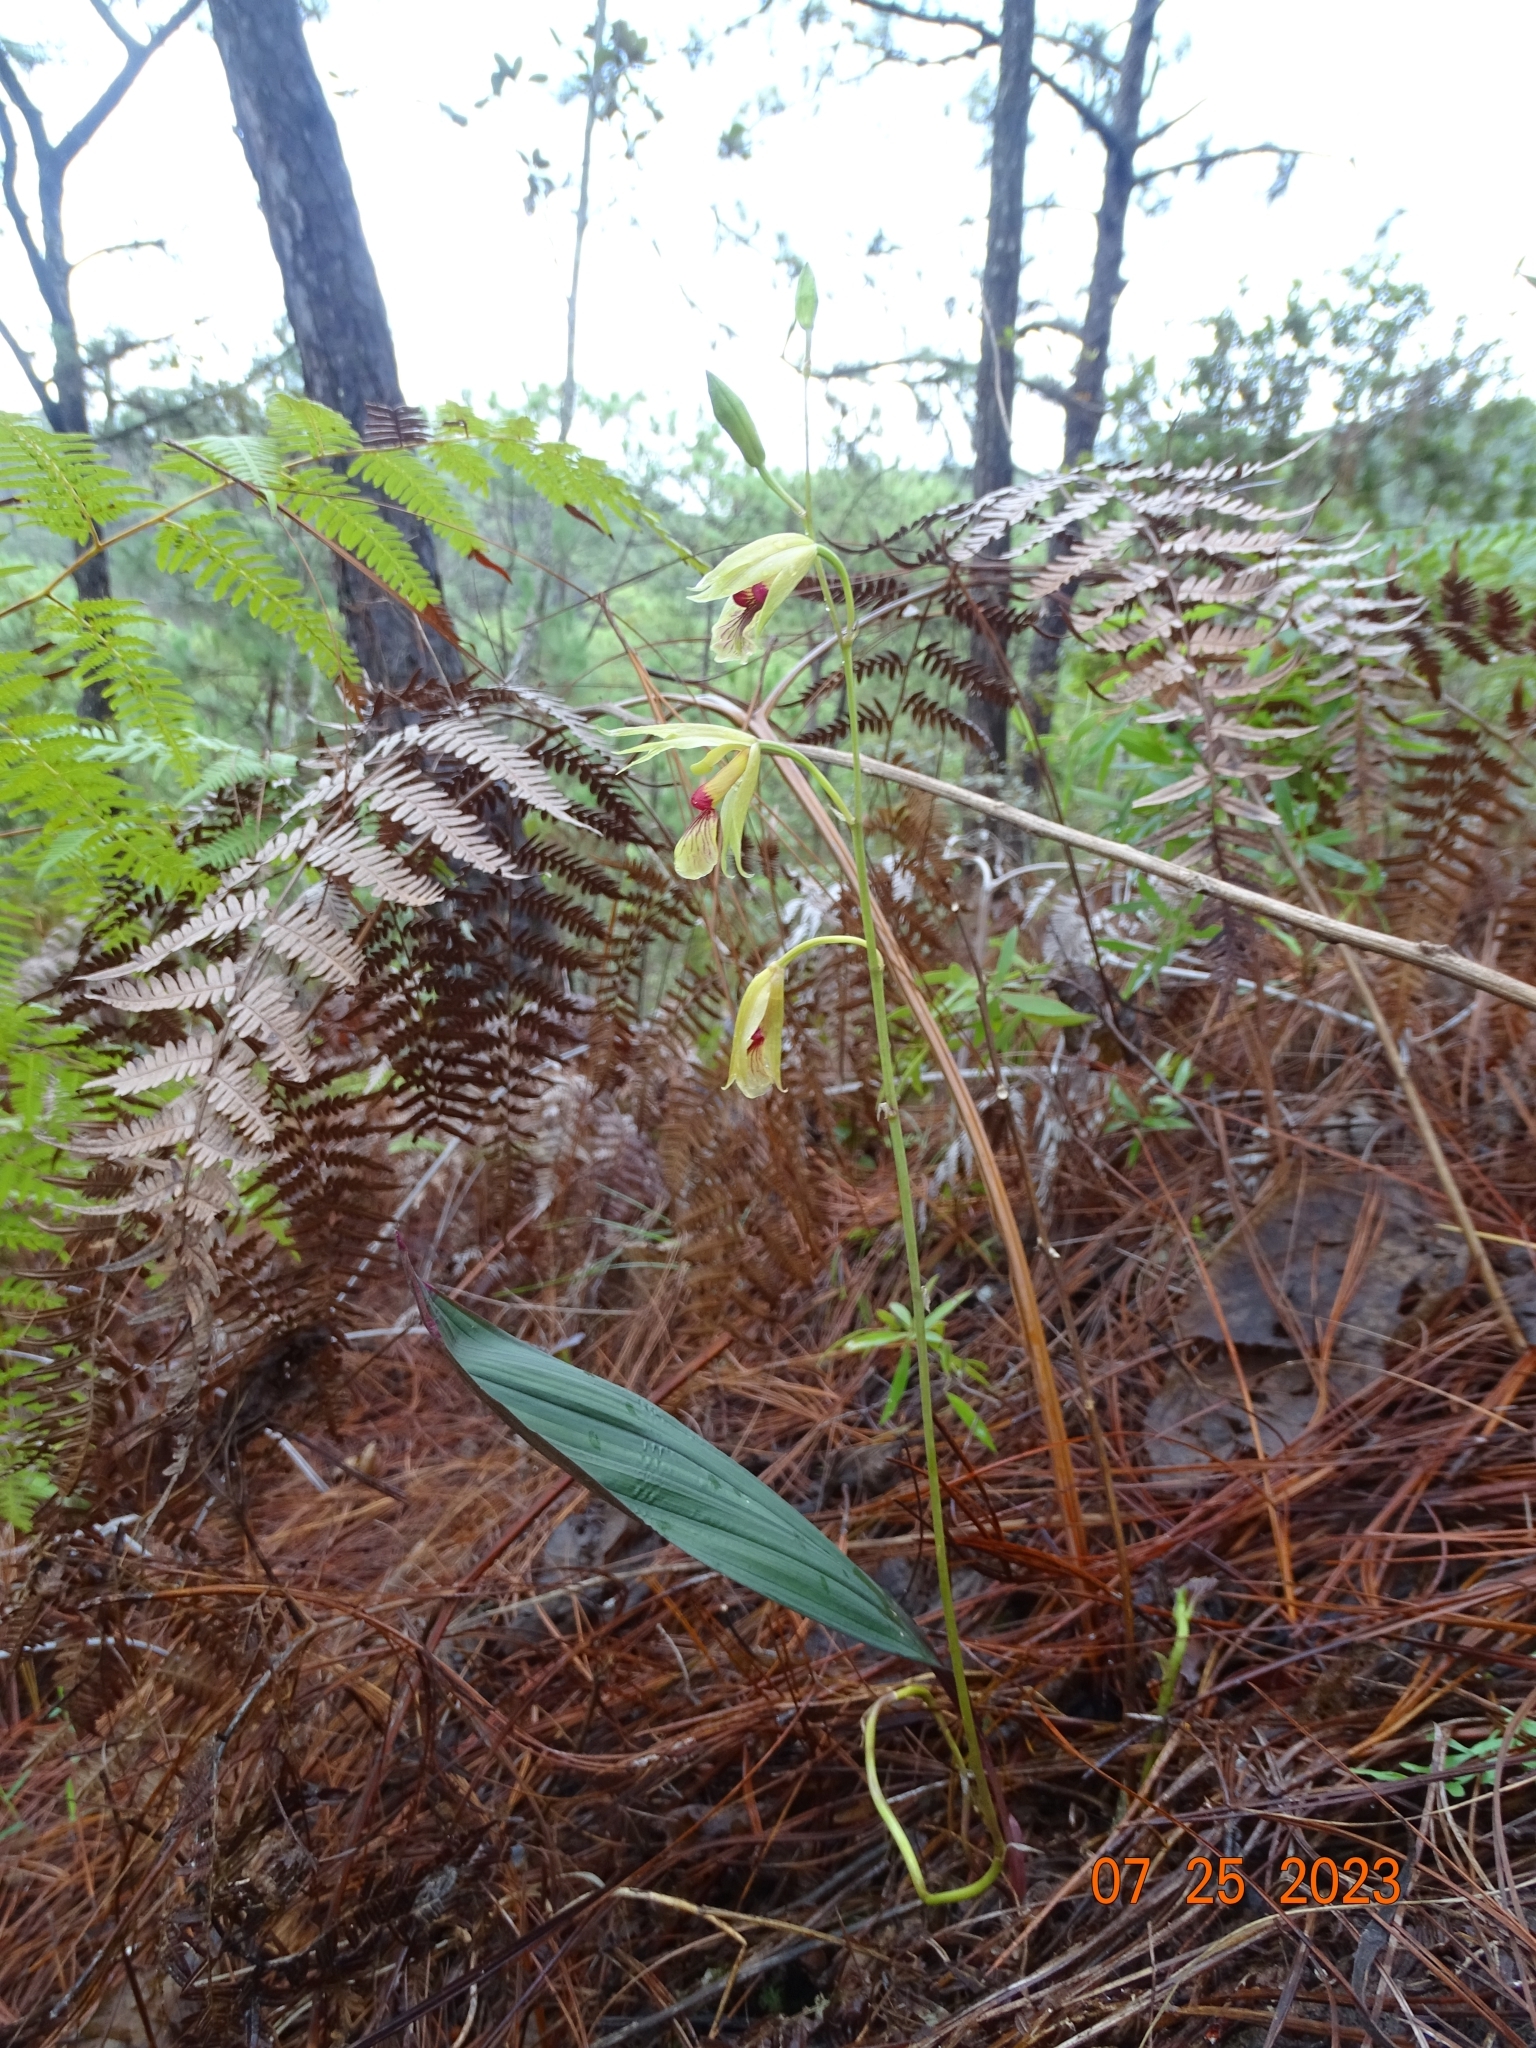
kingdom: Plantae
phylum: Tracheophyta
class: Liliopsida
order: Asparagales
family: Orchidaceae
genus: Bletia
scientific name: Bletia roezlii
